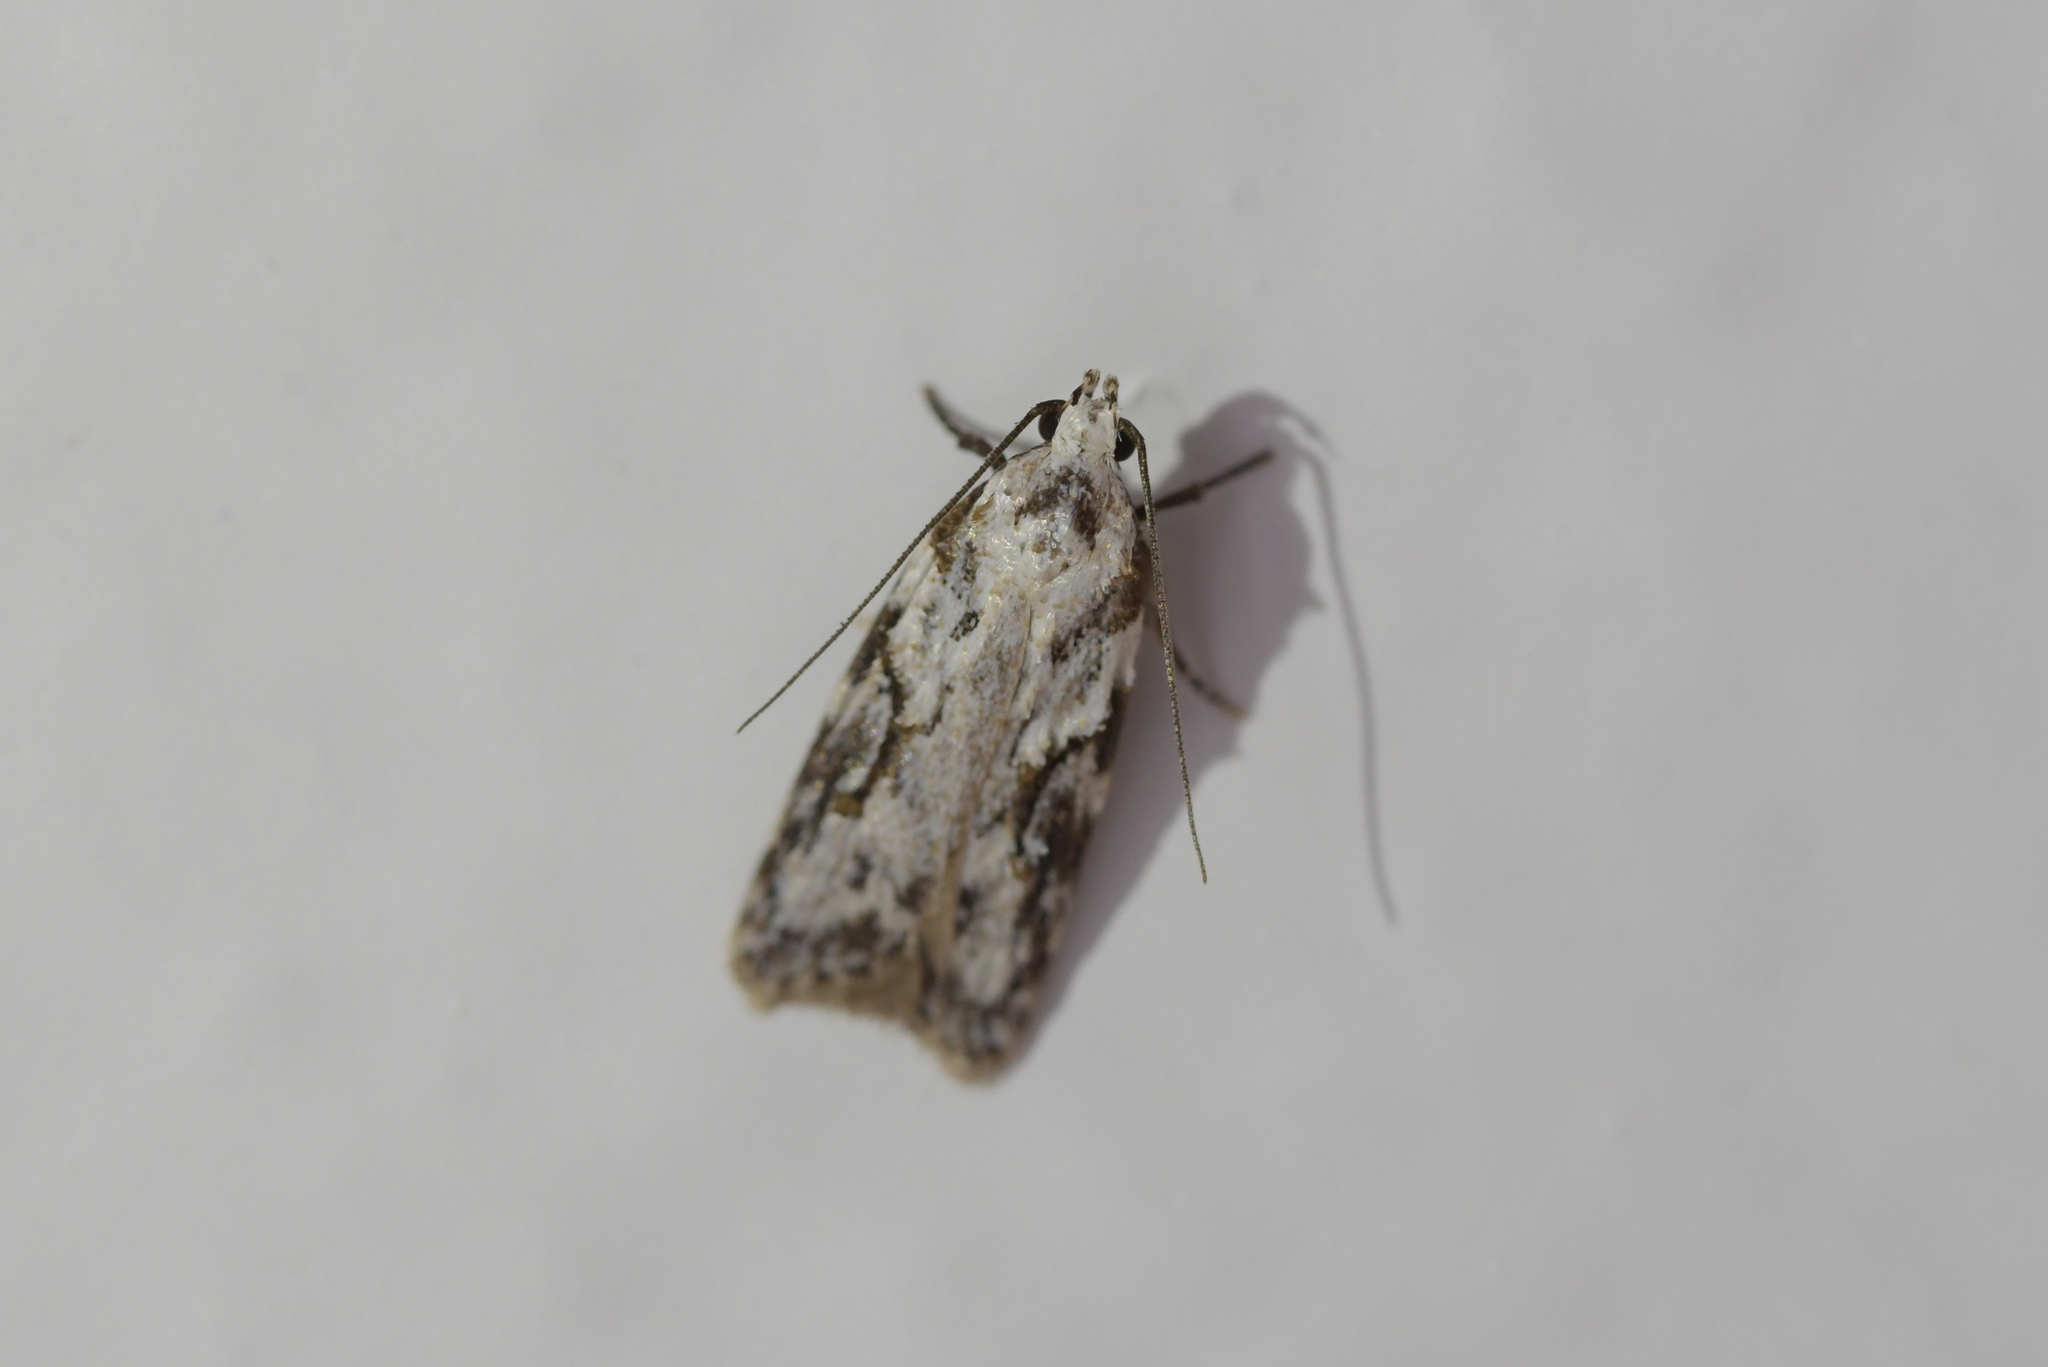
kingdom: Animalia
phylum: Arthropoda
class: Insecta
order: Lepidoptera
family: Oecophoridae
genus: Izatha
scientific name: Izatha mesoschista
